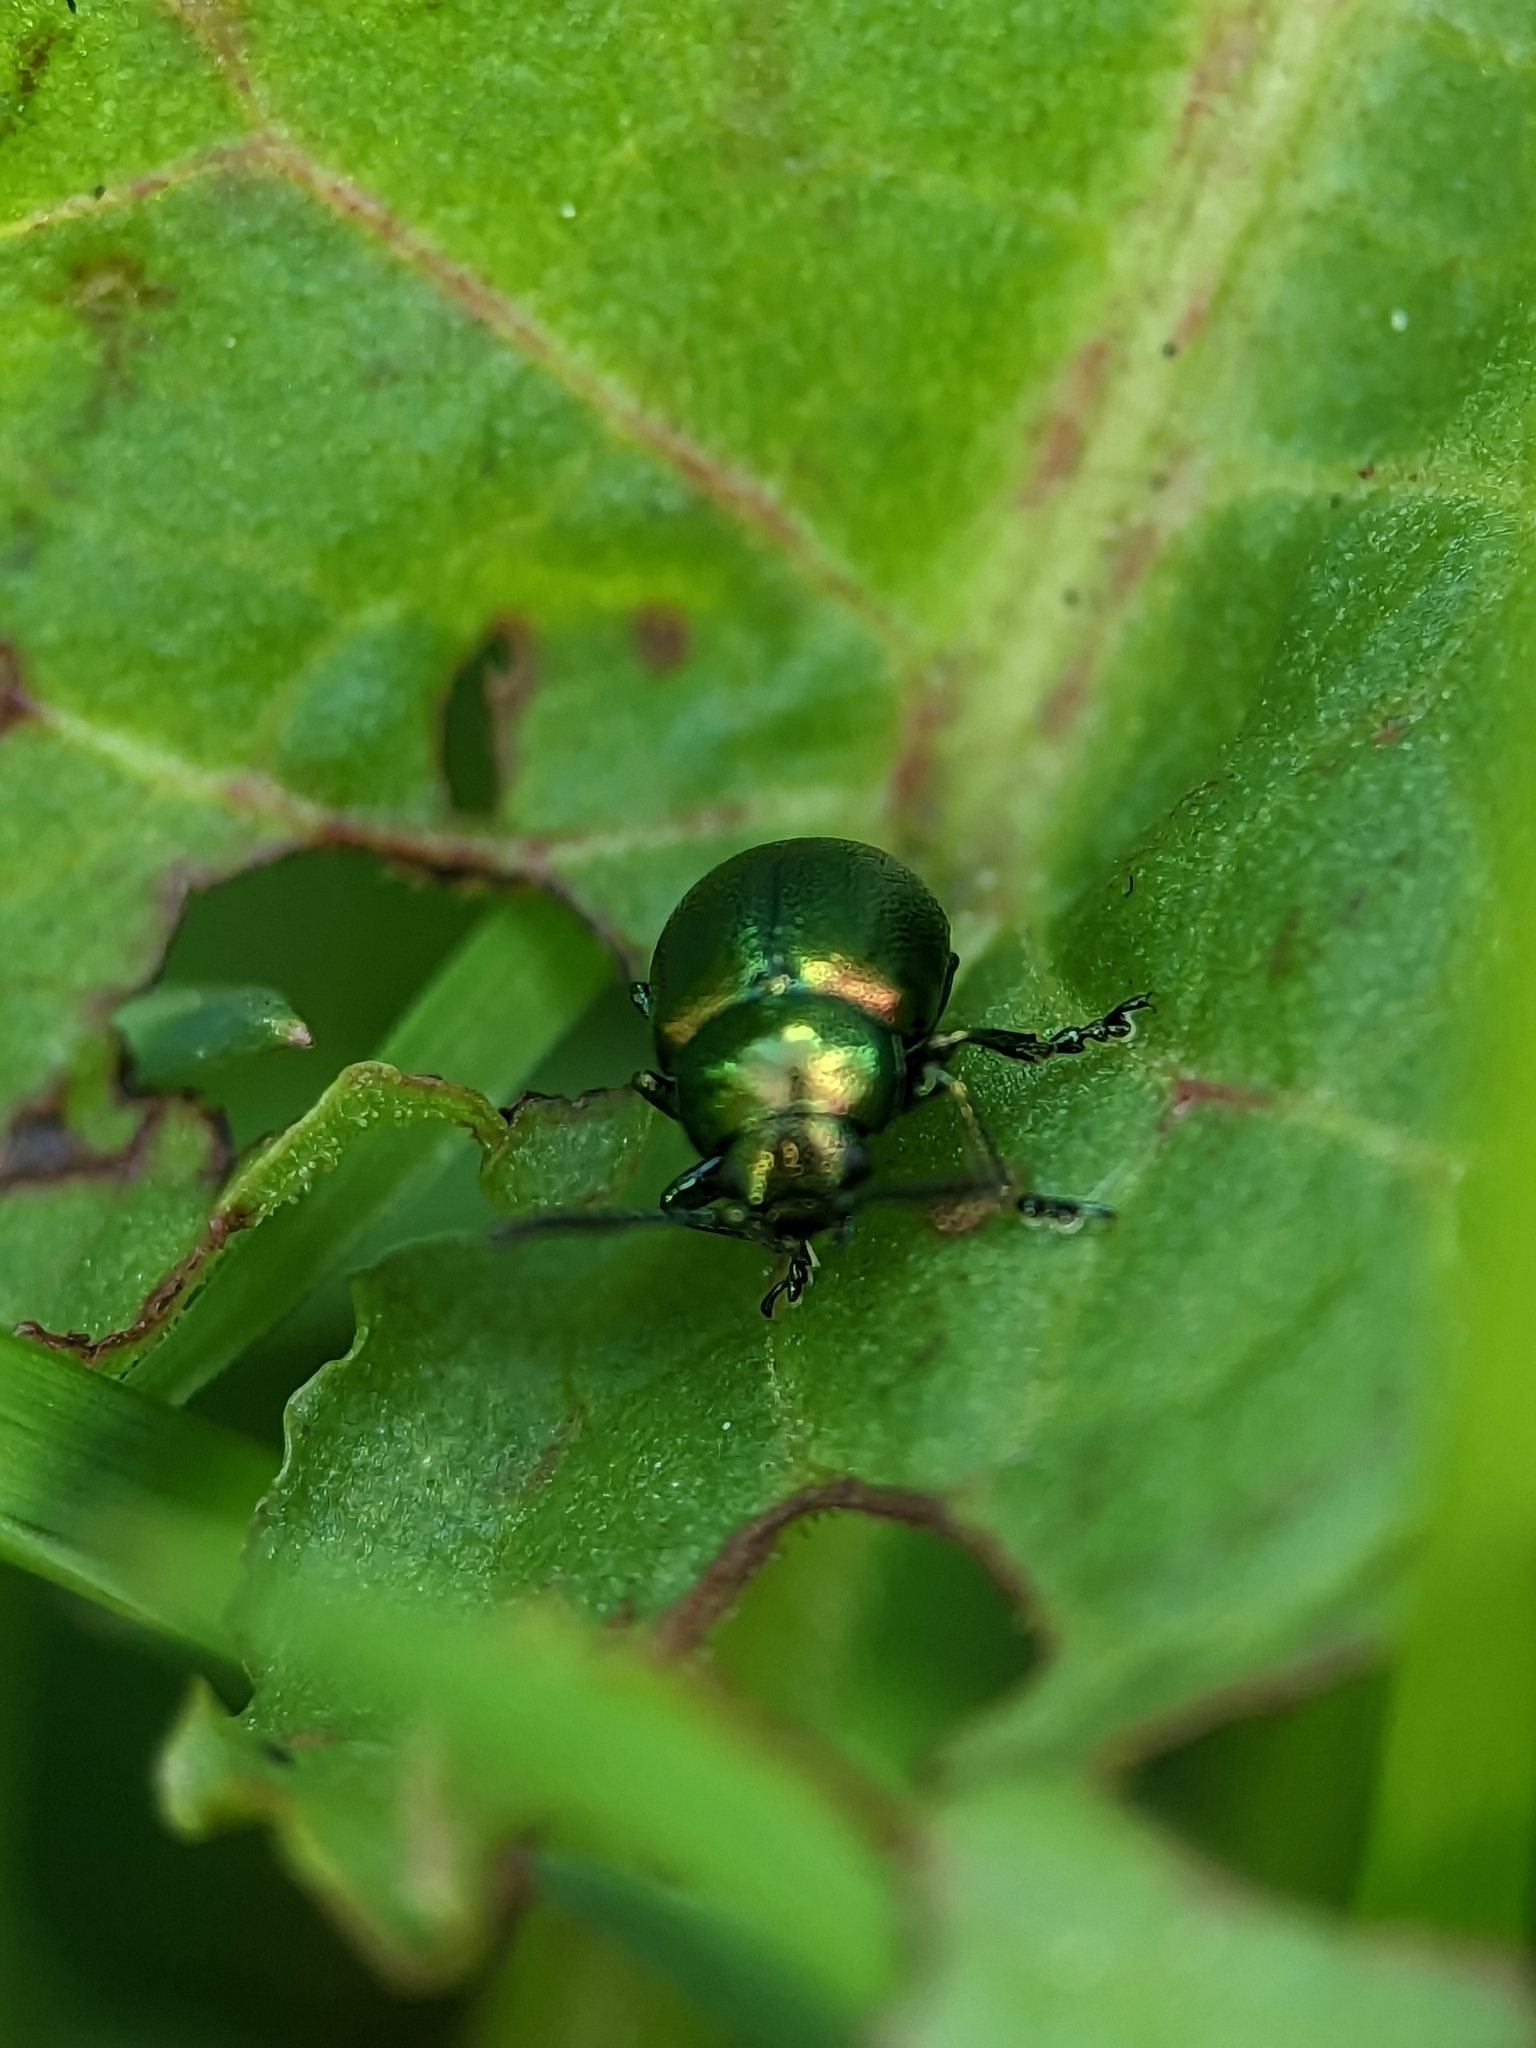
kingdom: Animalia
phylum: Arthropoda
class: Insecta
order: Coleoptera
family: Chrysomelidae
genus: Gastrophysa
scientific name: Gastrophysa viridula
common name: Green dock beetle
